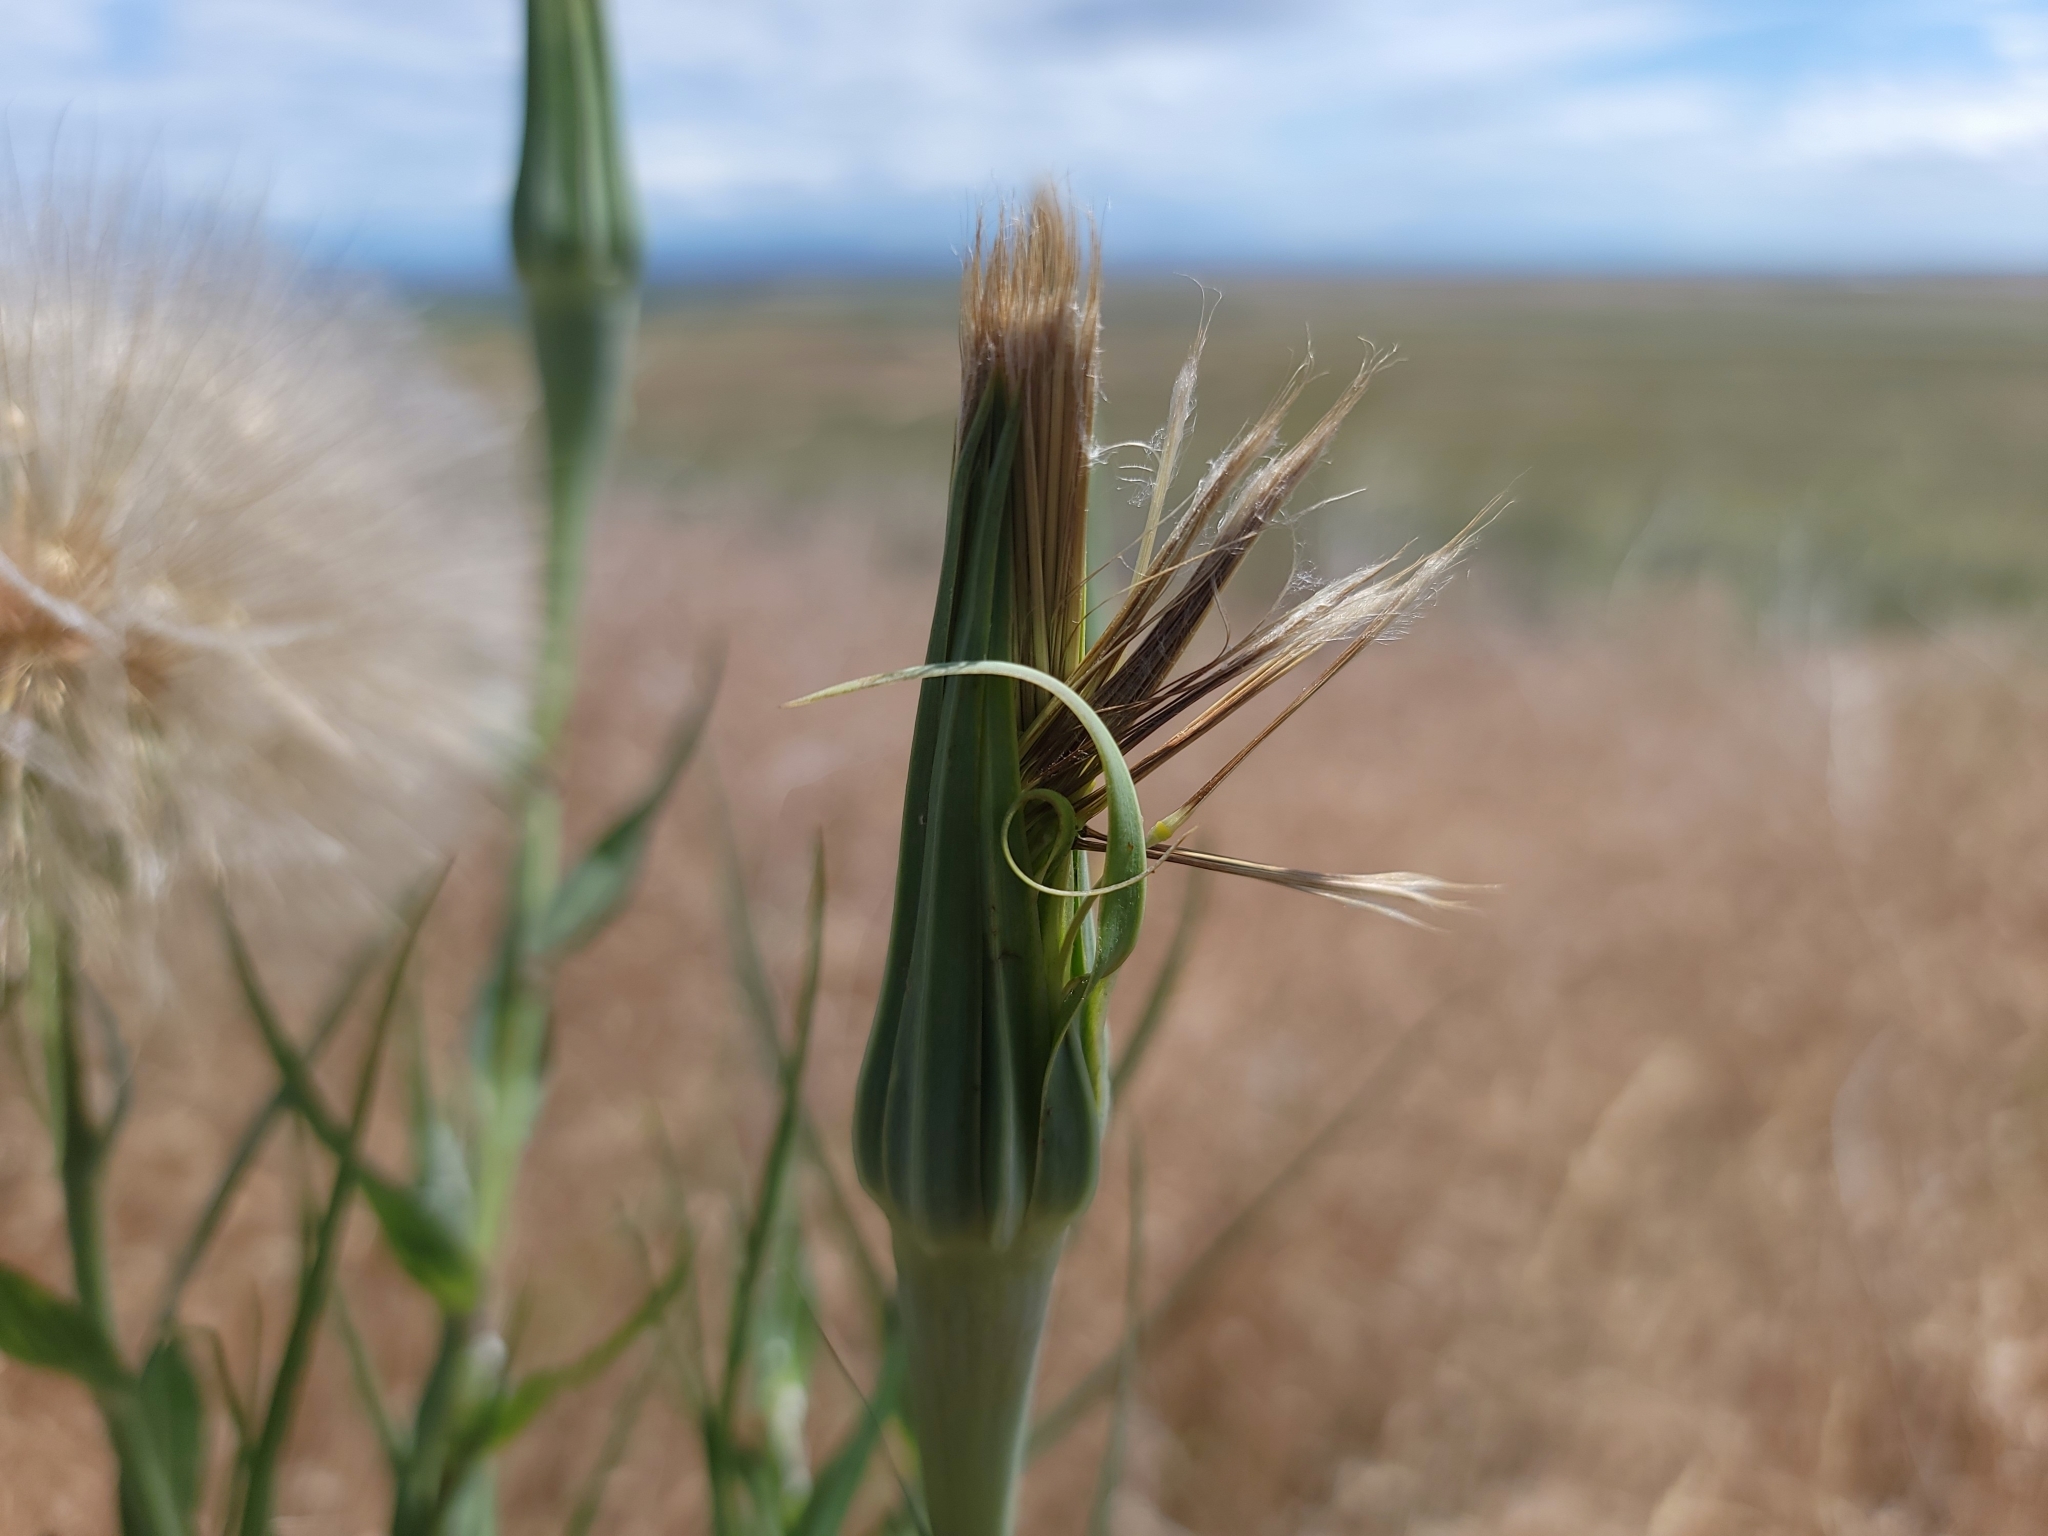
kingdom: Plantae
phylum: Tracheophyta
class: Magnoliopsida
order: Asterales
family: Asteraceae
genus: Tragopogon
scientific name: Tragopogon dubius
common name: Yellow salsify
